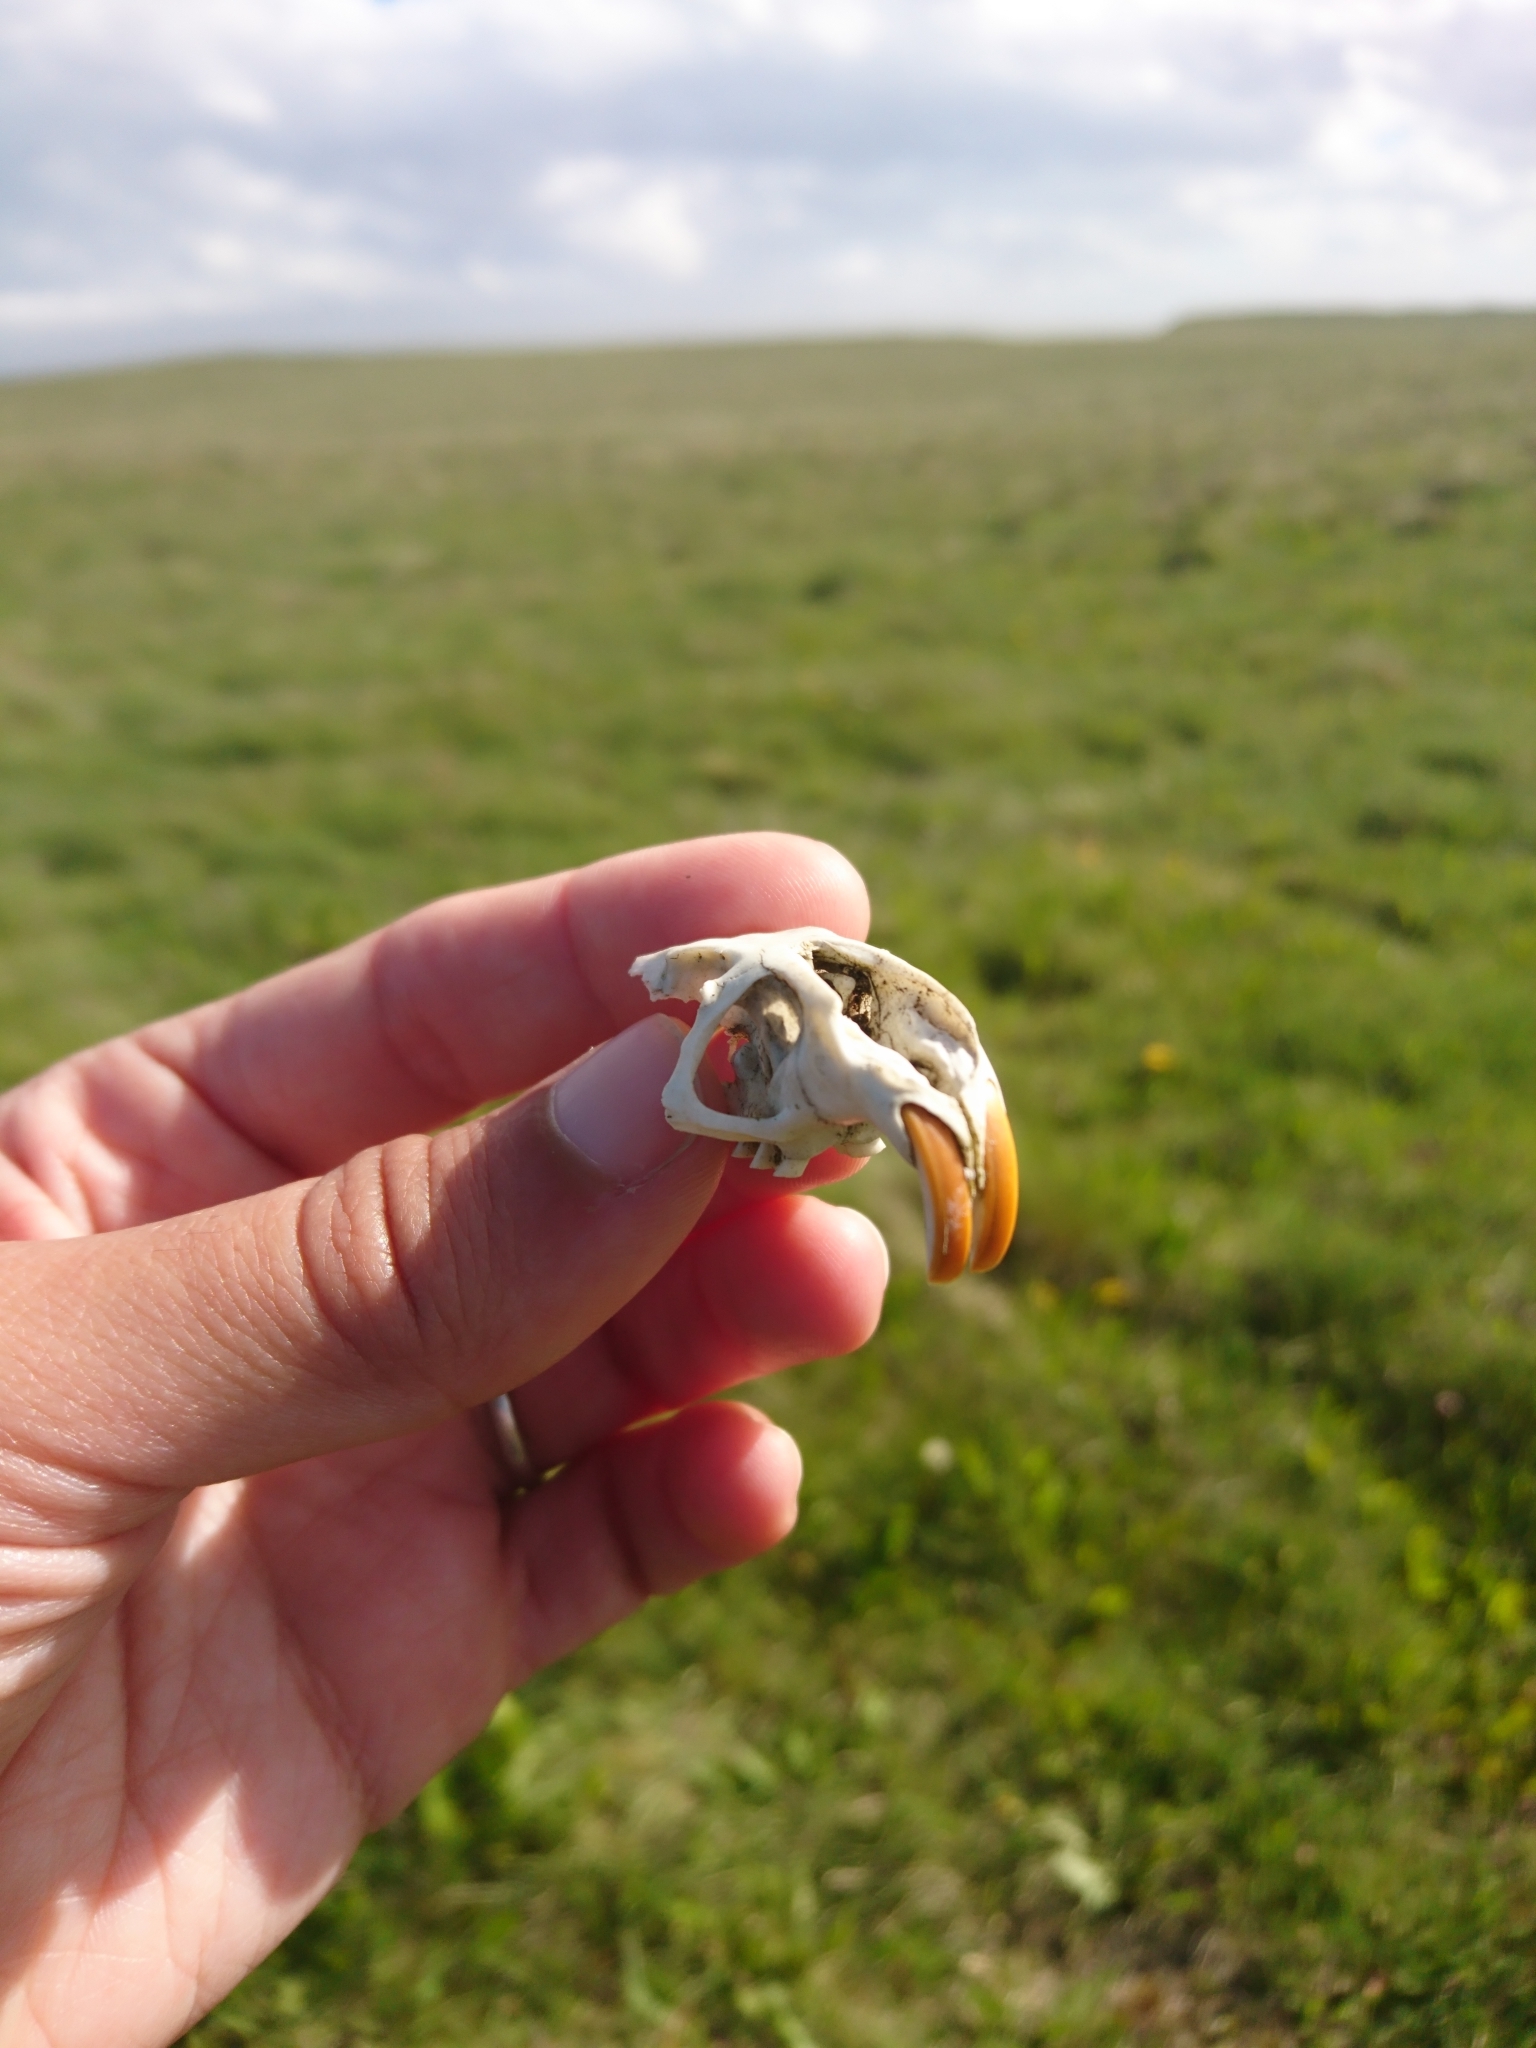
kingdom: Animalia
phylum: Chordata
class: Mammalia
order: Rodentia
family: Ctenomyidae
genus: Ctenomys
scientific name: Ctenomys magellanicus
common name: Magellanic tuco-tuco
